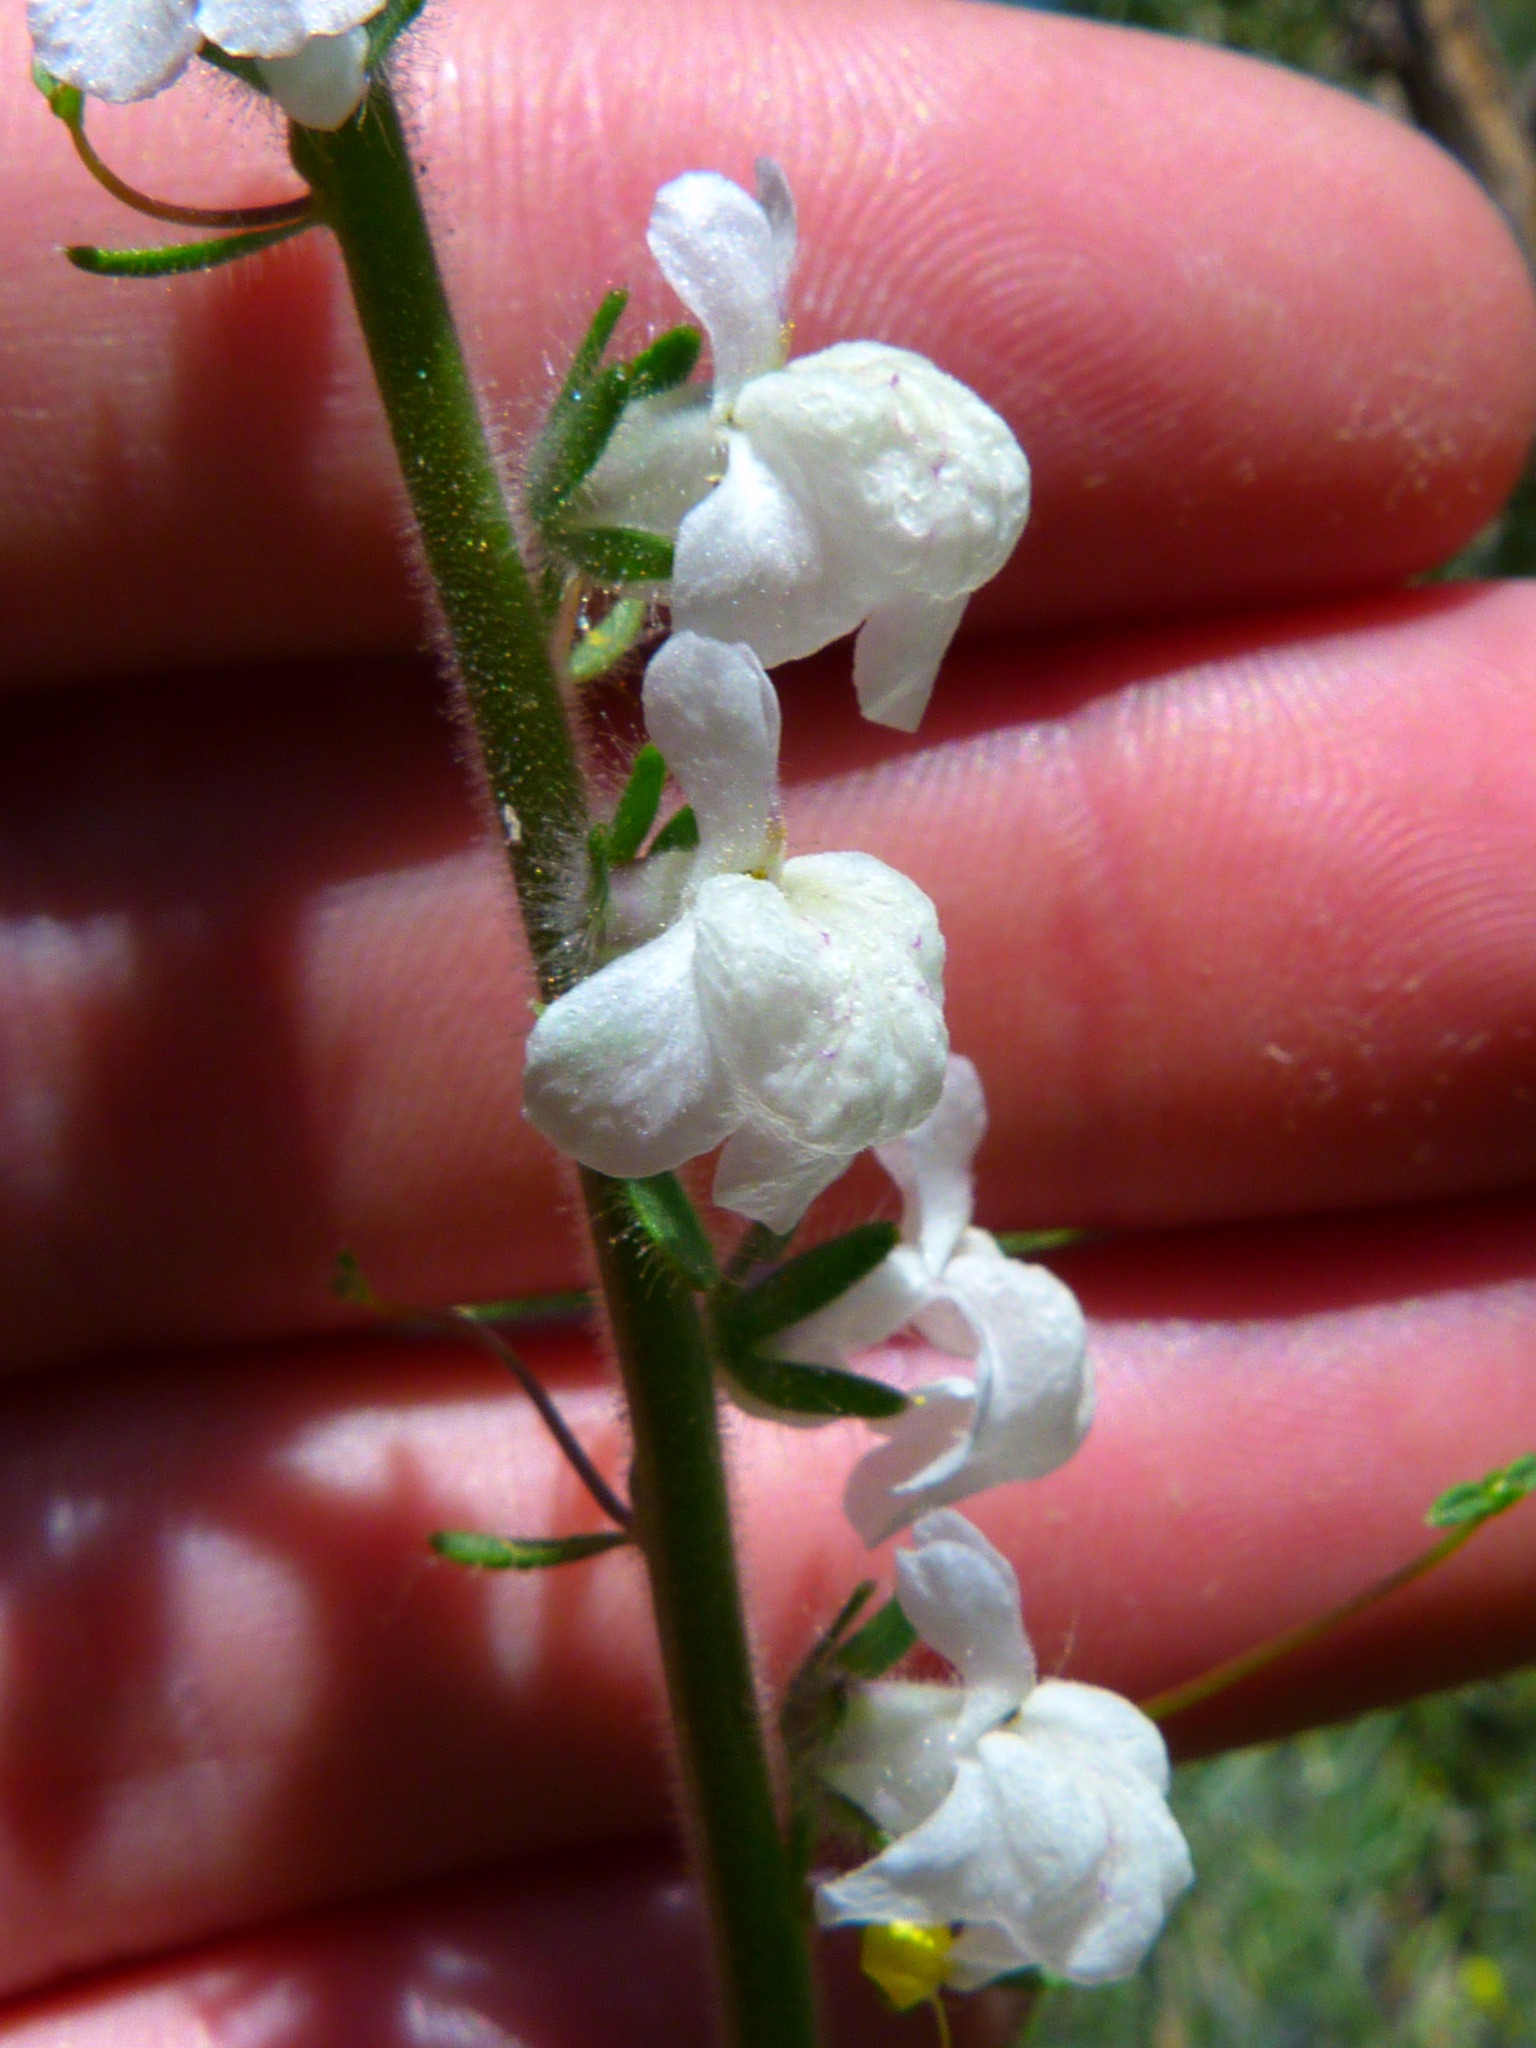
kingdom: Plantae
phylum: Tracheophyta
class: Magnoliopsida
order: Lamiales
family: Plantaginaceae
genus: Sairocarpus
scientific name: Sairocarpus coulterianus
